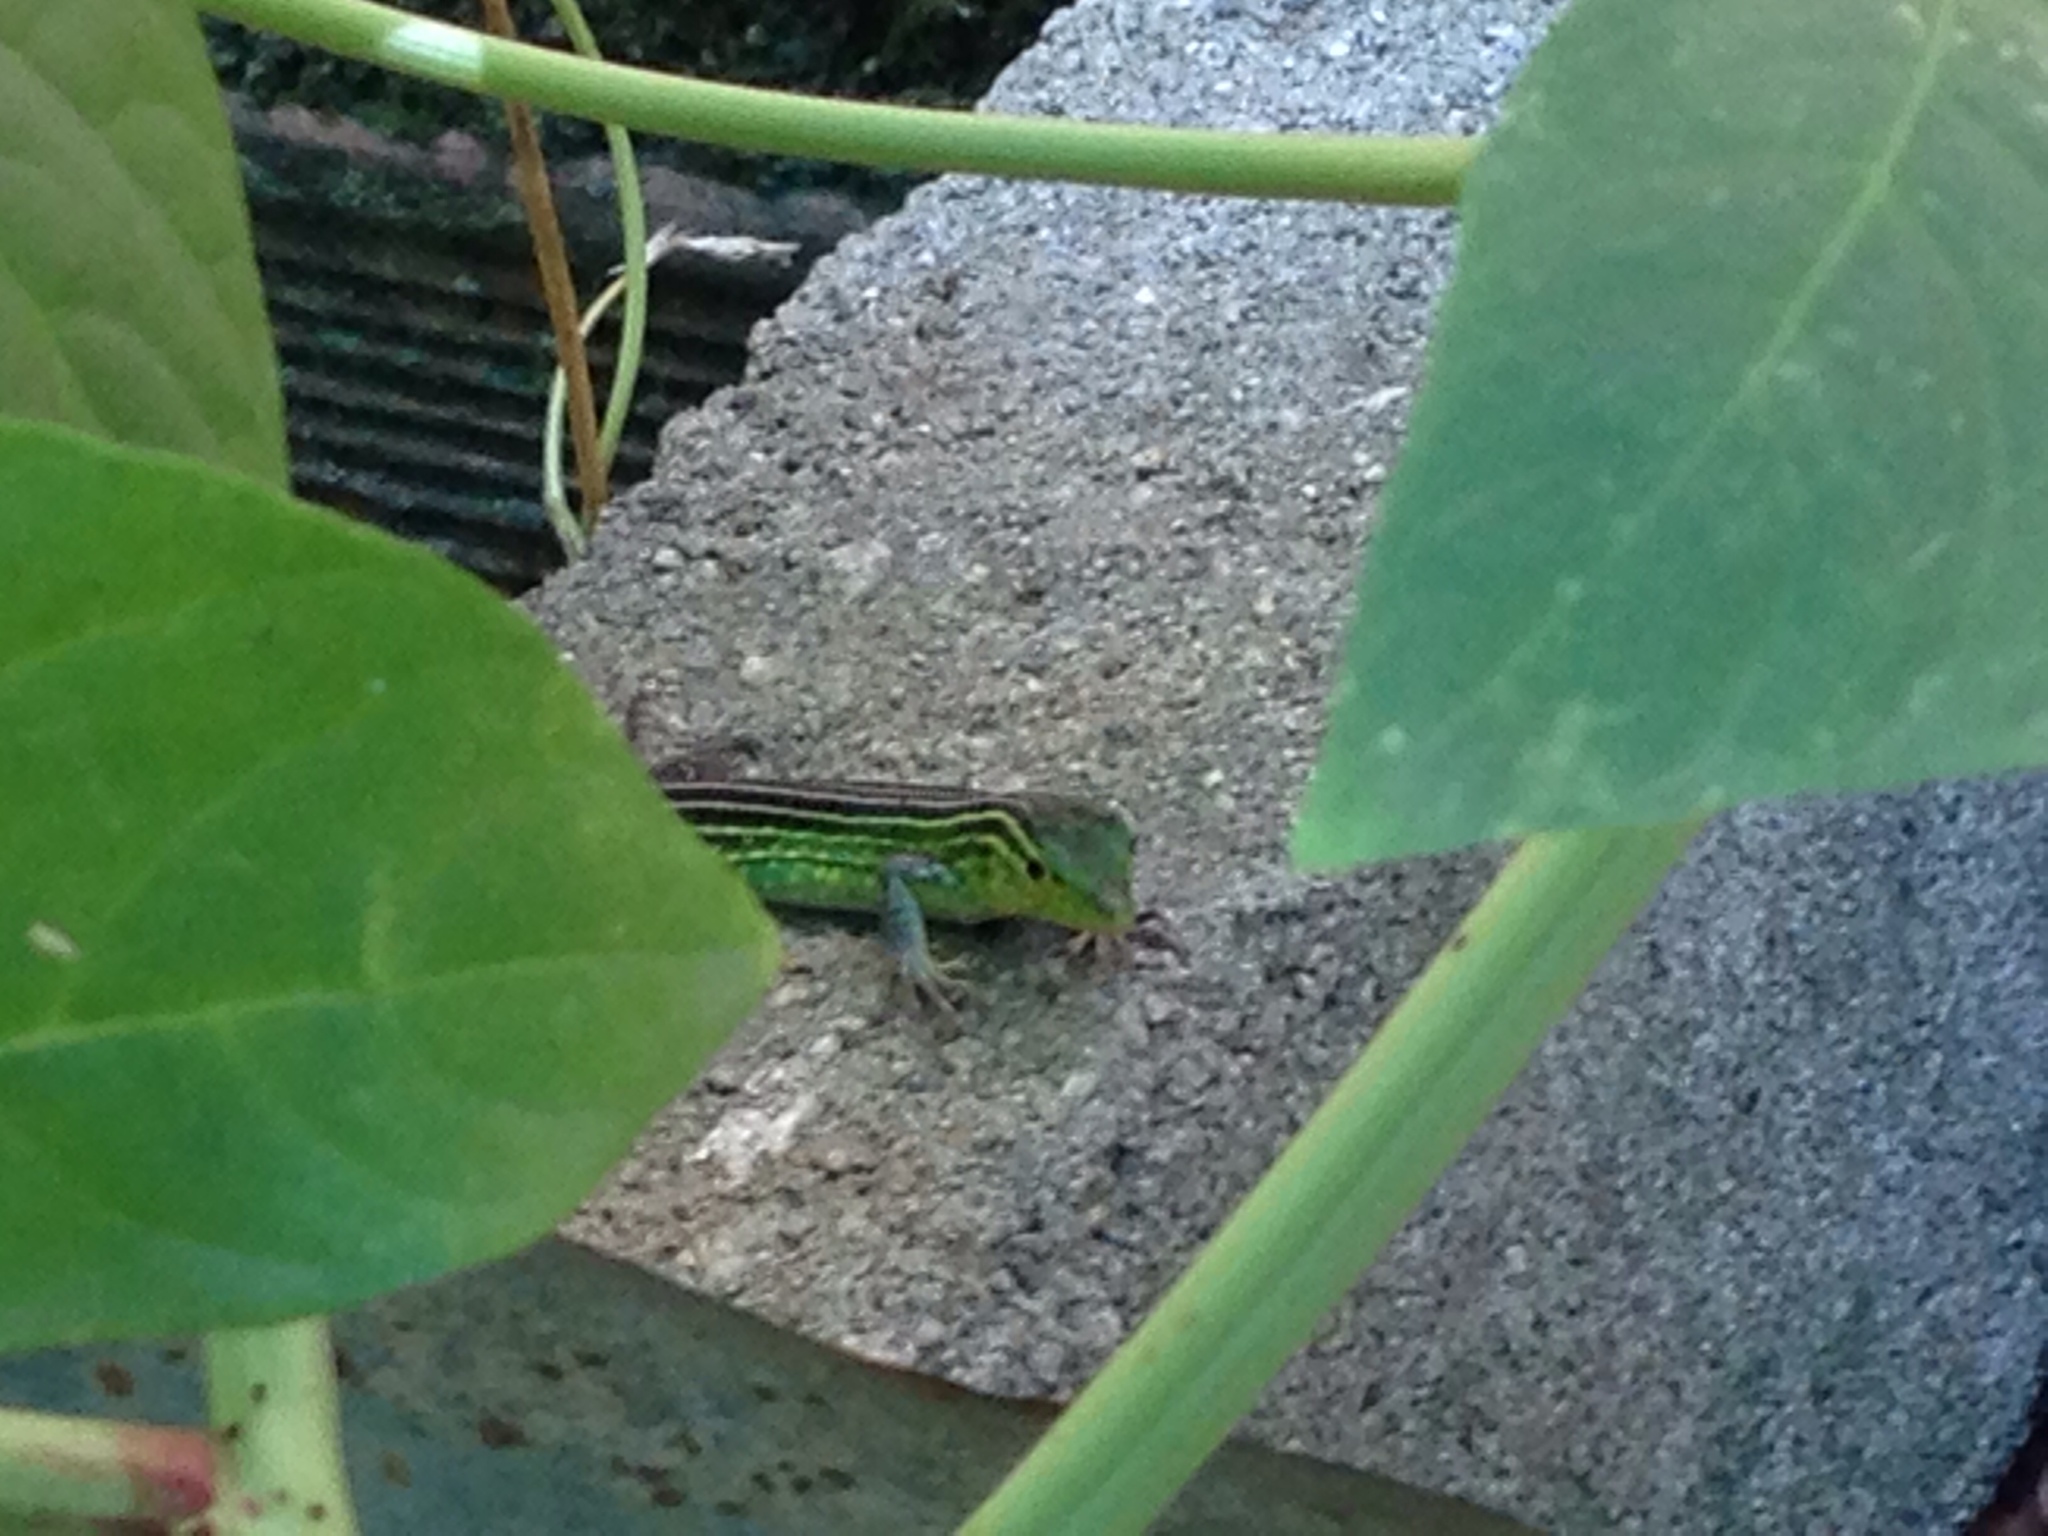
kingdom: Animalia
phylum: Chordata
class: Squamata
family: Teiidae
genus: Cnemidophorus
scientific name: Cnemidophorus gaigei
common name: Gaige’s rainbow lizard
